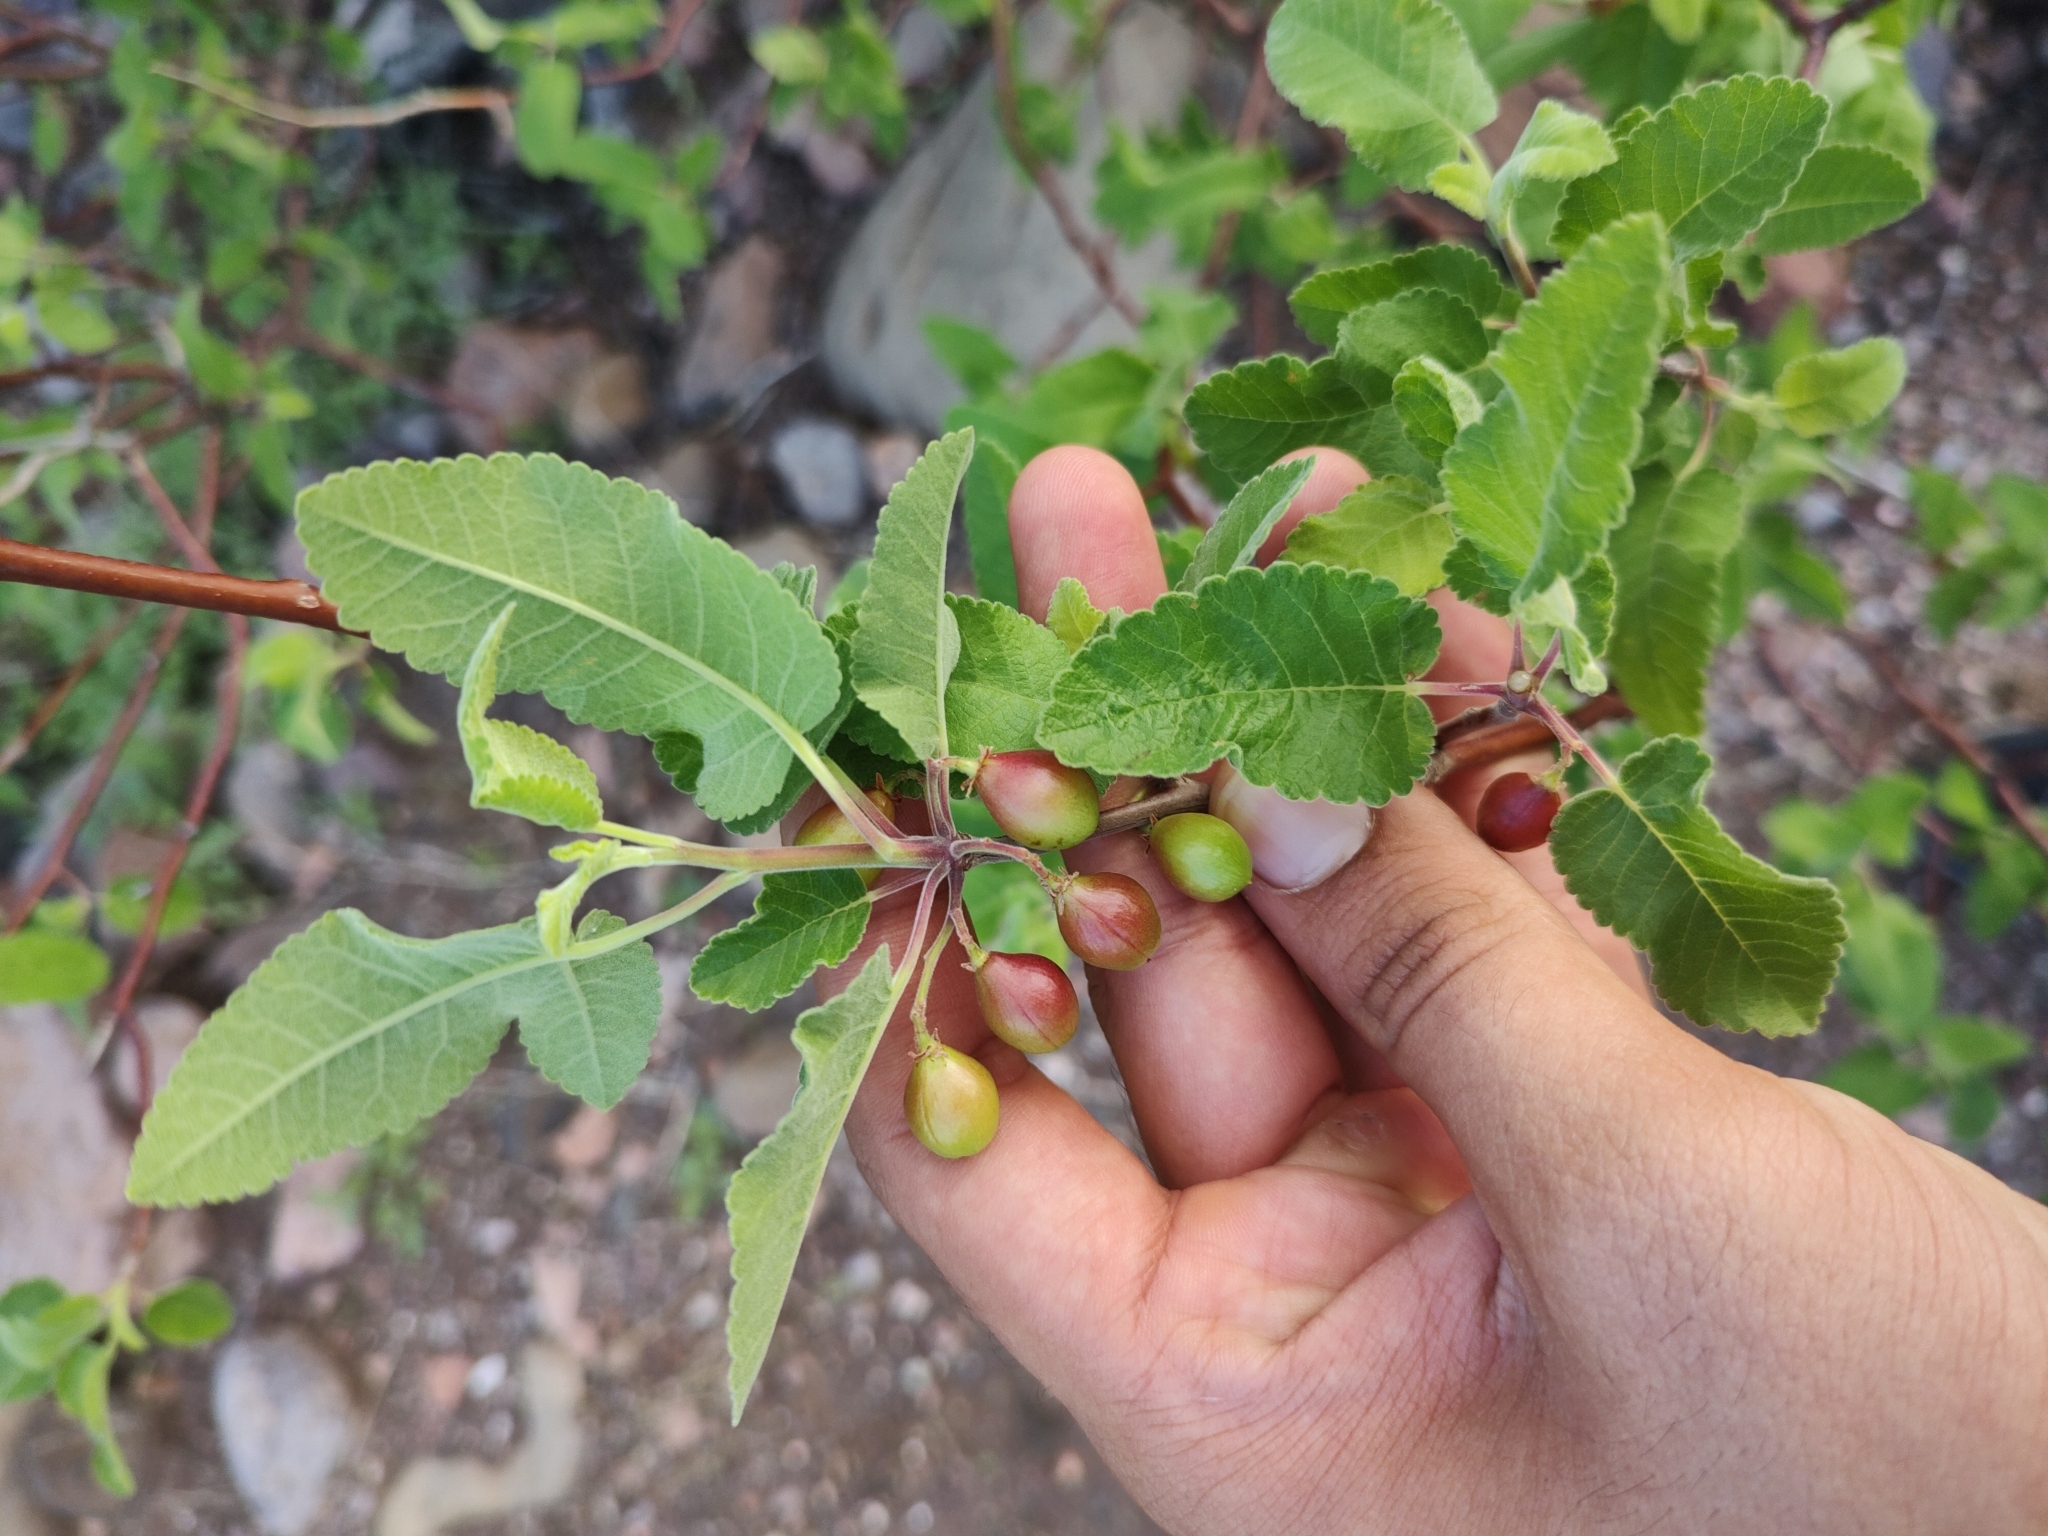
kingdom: Plantae
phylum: Tracheophyta
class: Magnoliopsida
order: Sapindales
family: Burseraceae
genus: Bursera
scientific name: Bursera hindsiana
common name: Red elephant tree
